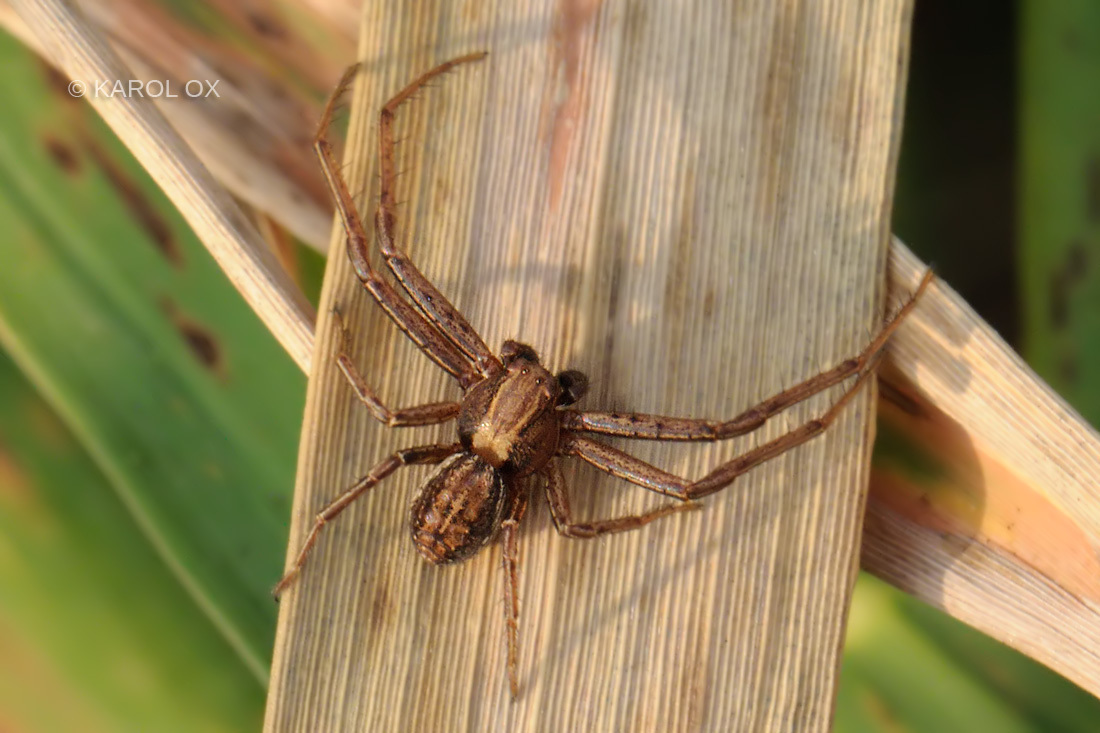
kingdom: Animalia
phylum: Arthropoda
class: Arachnida
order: Araneae
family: Thomisidae
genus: Spiracme
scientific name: Spiracme striatipes
